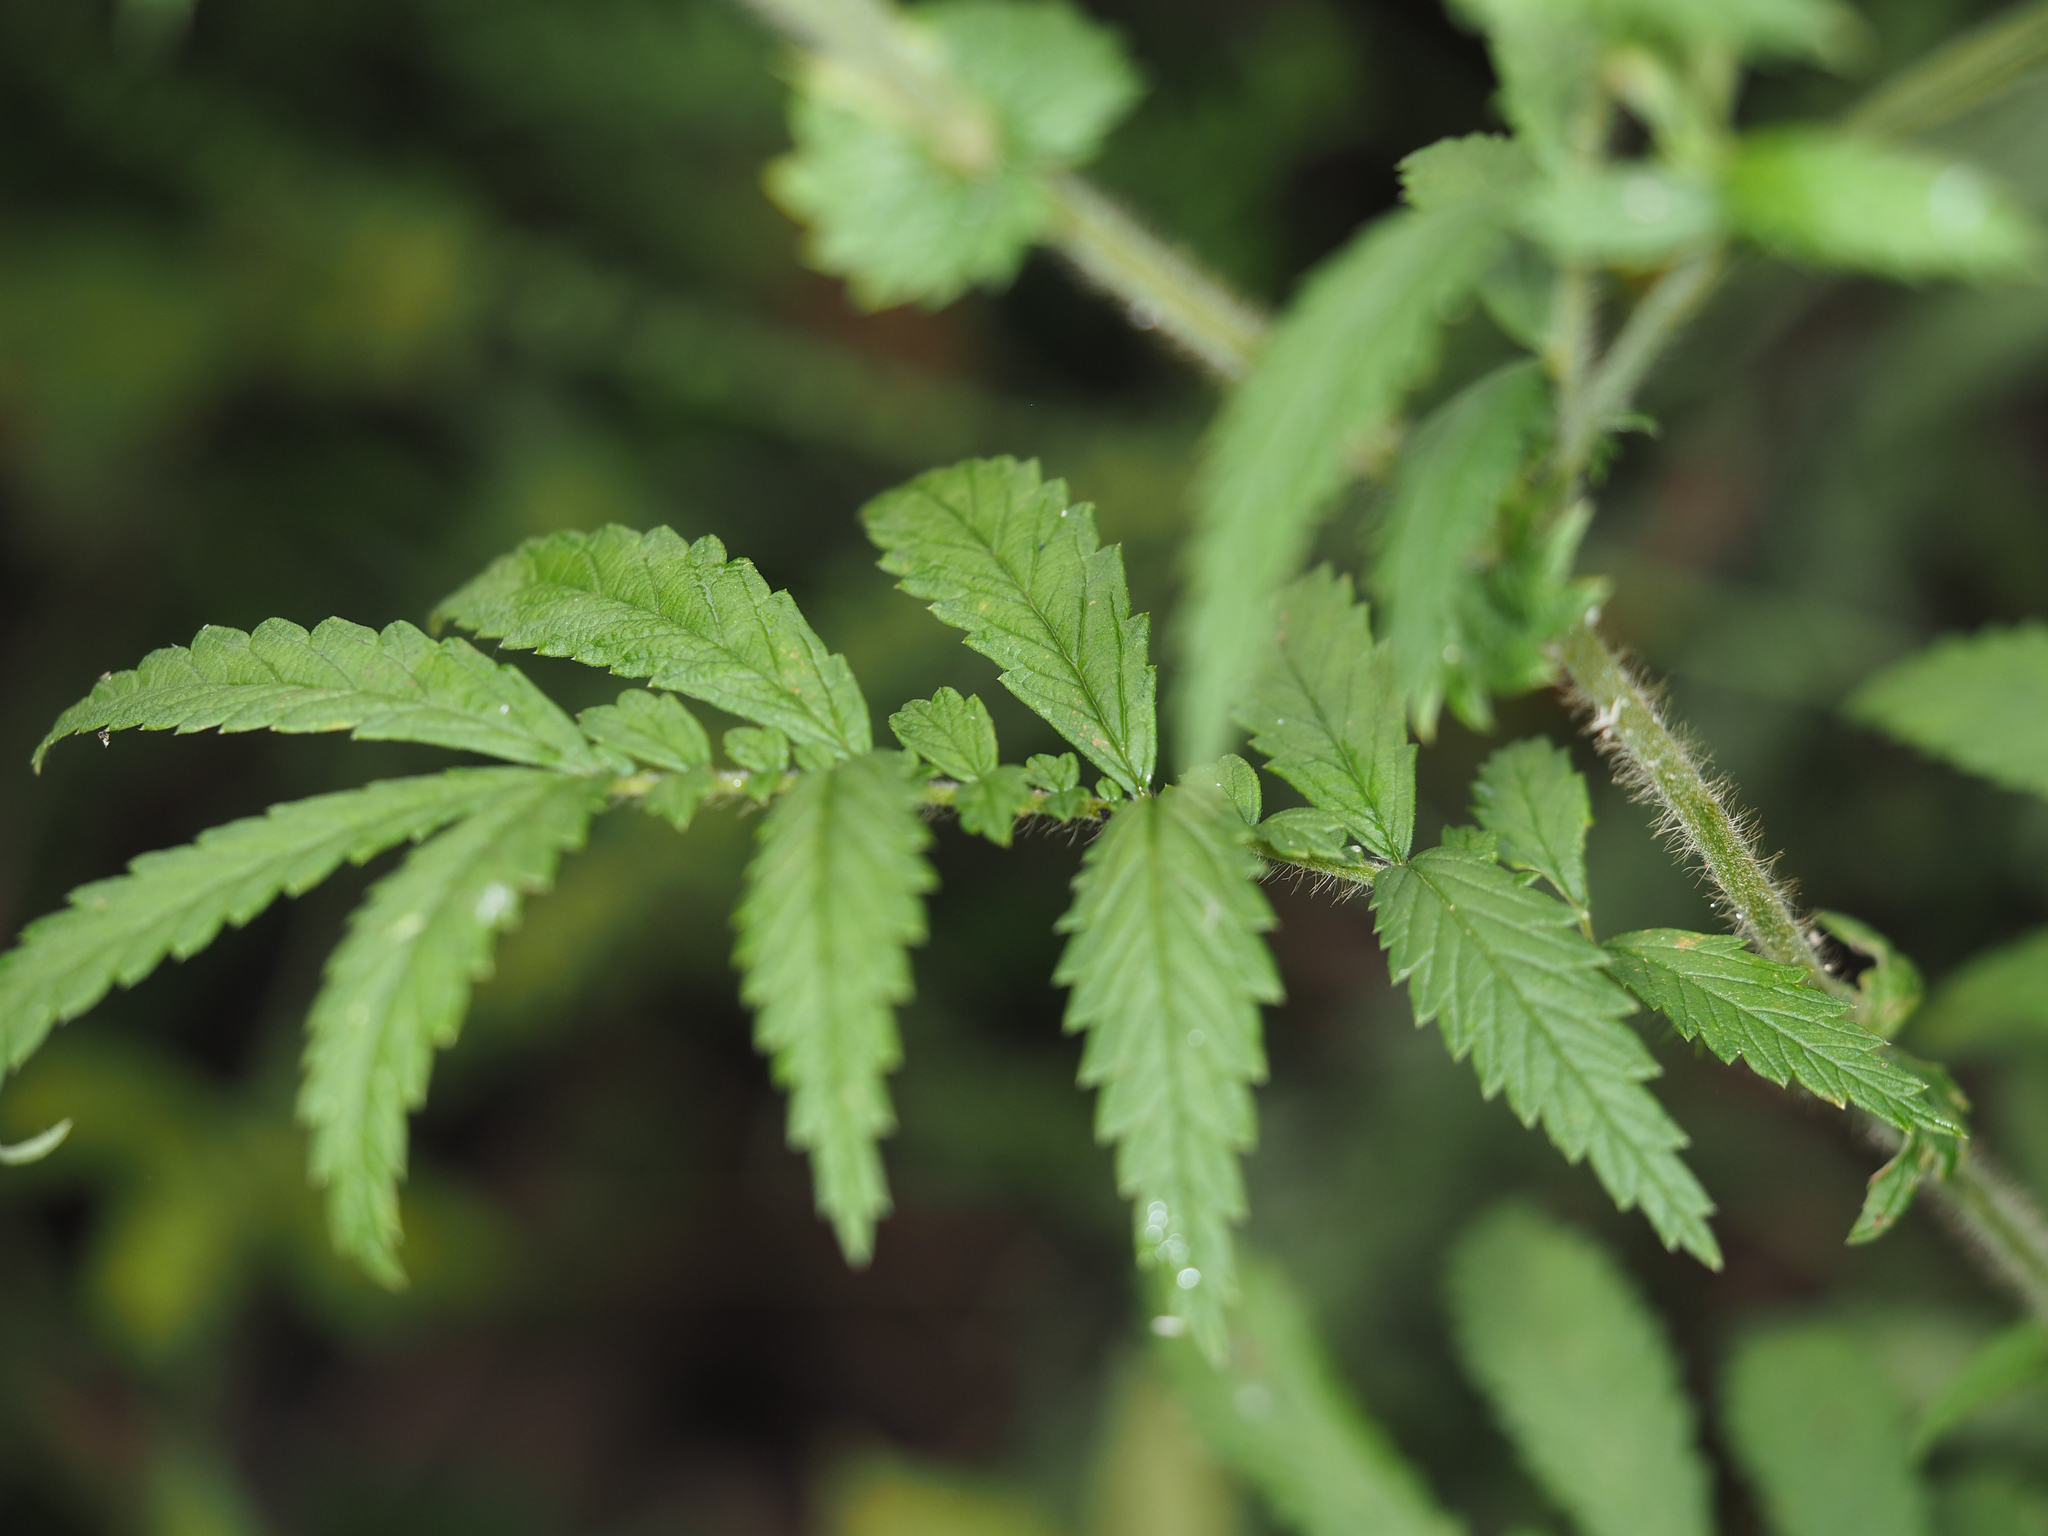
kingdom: Plantae
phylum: Tracheophyta
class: Magnoliopsida
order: Rosales
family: Rosaceae
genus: Agrimonia
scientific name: Agrimonia parviflora
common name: Harvest-lice
